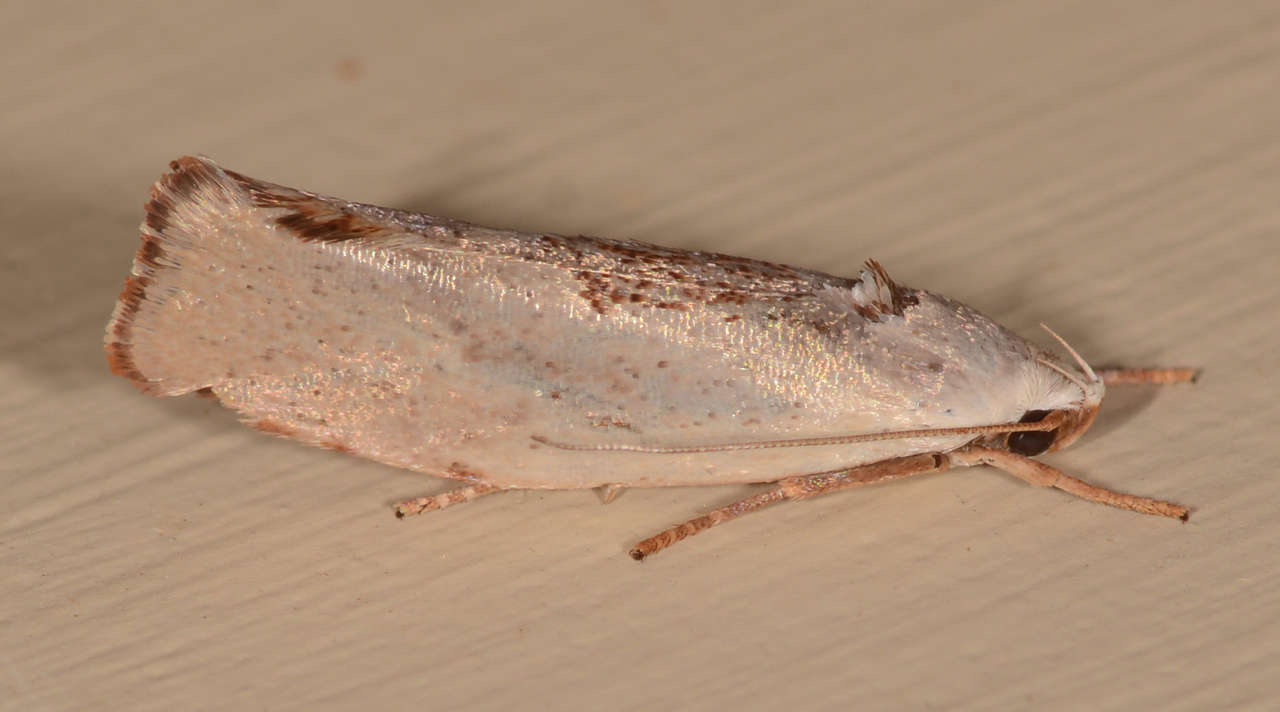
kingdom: Animalia
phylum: Arthropoda
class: Insecta
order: Lepidoptera
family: Xyloryctidae
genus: Tymbophora
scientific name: Tymbophora peltastis
